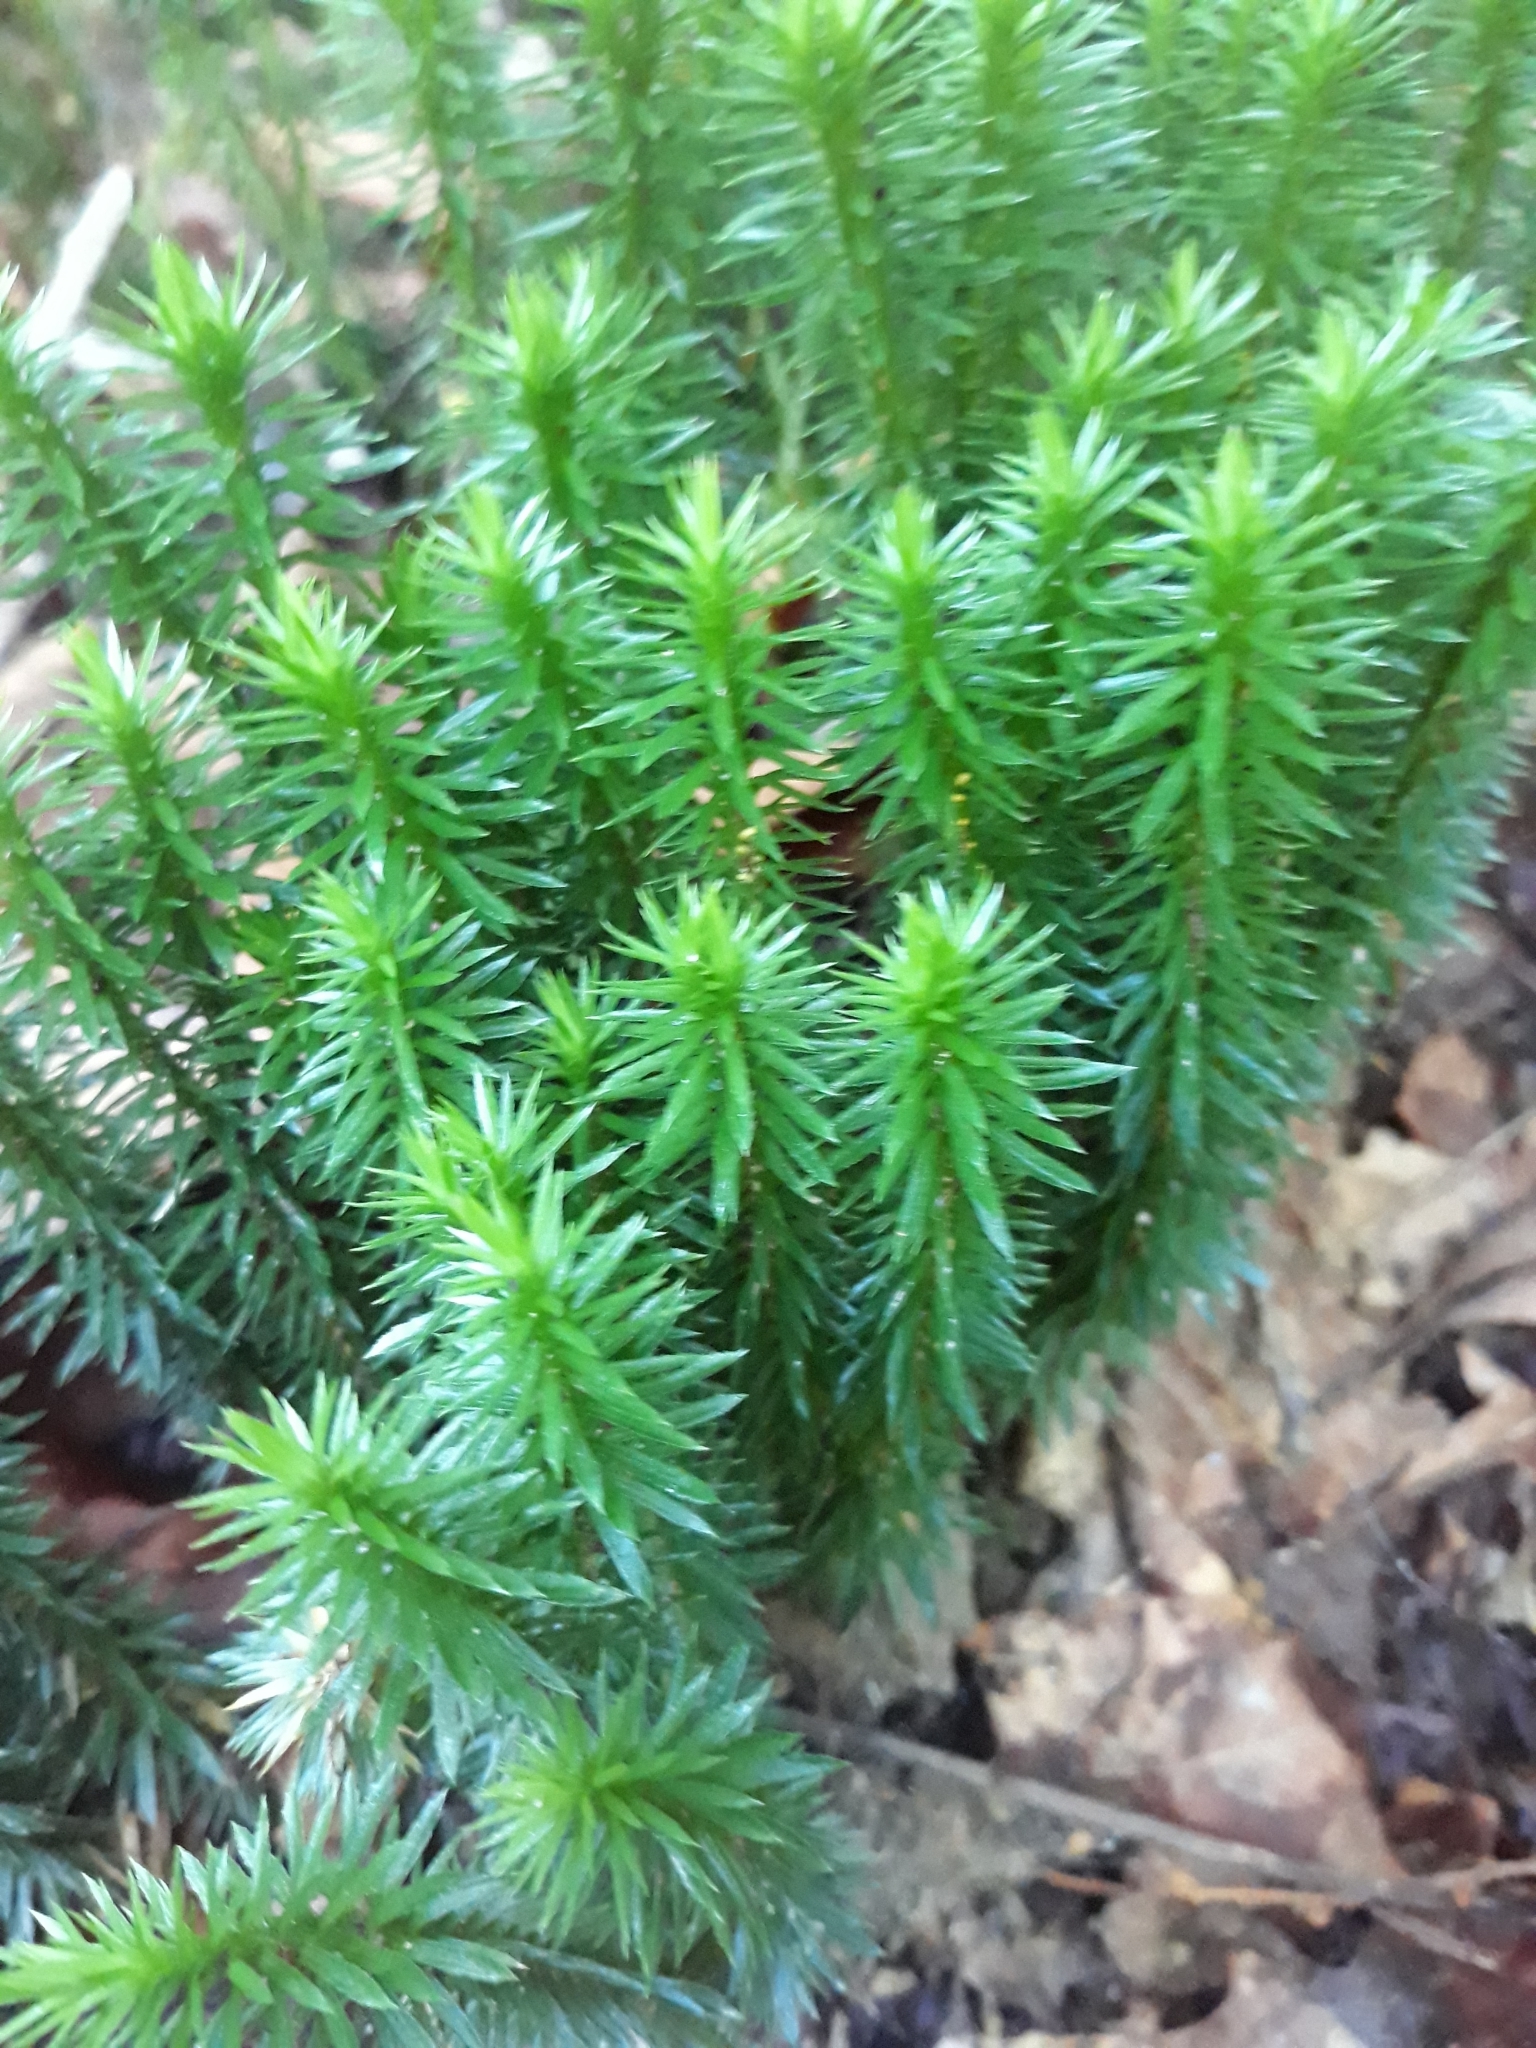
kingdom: Plantae
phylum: Tracheophyta
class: Lycopodiopsida
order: Lycopodiales
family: Lycopodiaceae
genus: Huperzia
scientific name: Huperzia lucidula
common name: Shining clubmoss
